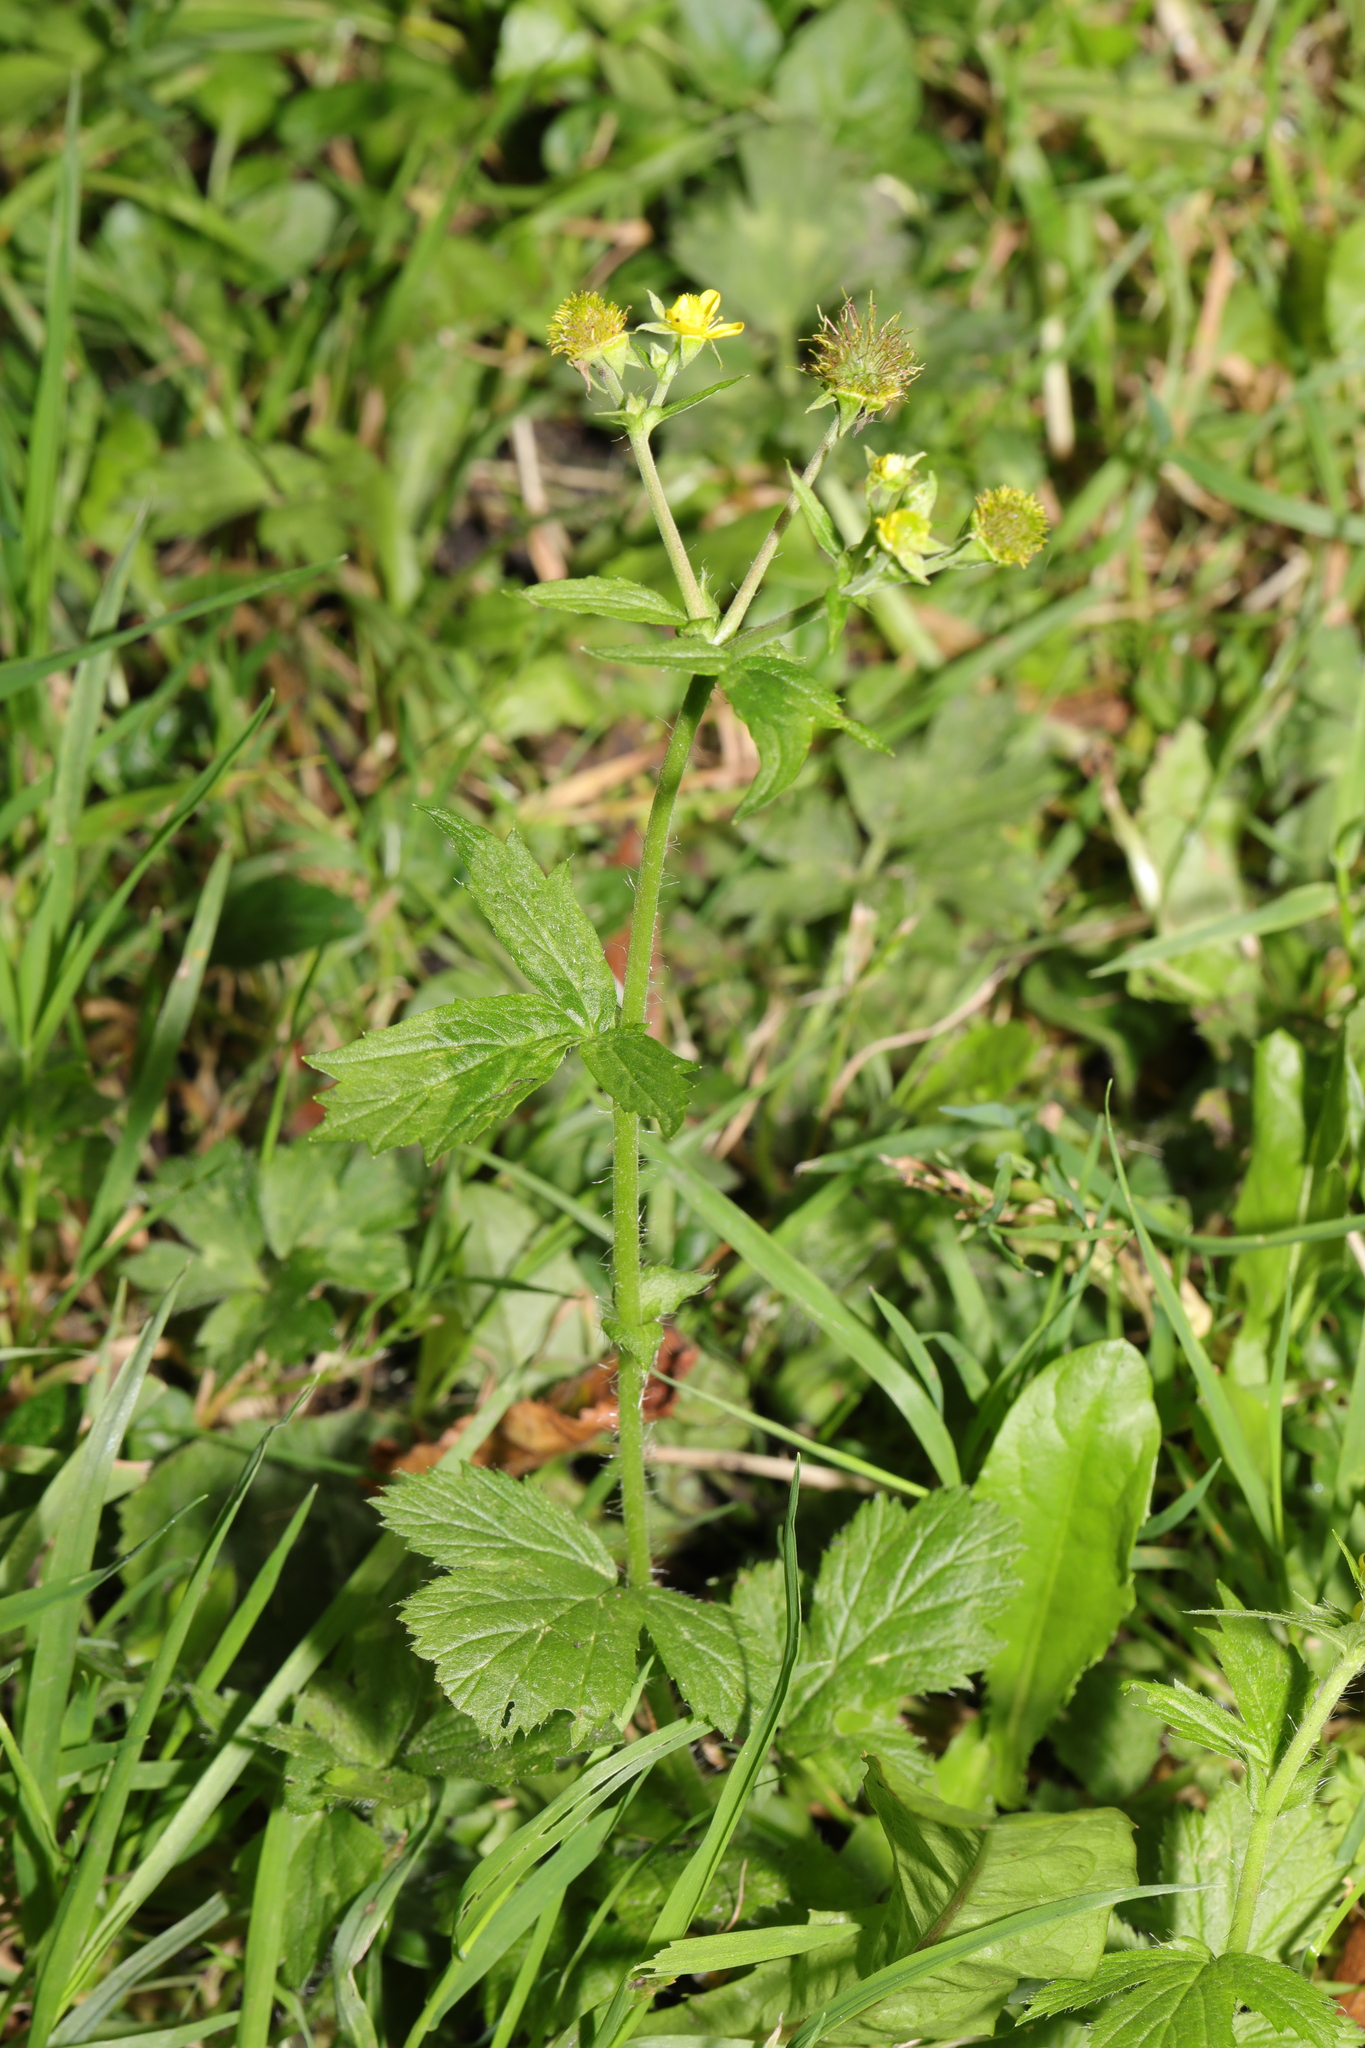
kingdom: Plantae
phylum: Tracheophyta
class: Magnoliopsida
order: Rosales
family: Rosaceae
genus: Geum
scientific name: Geum urbanum
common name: Wood avens
